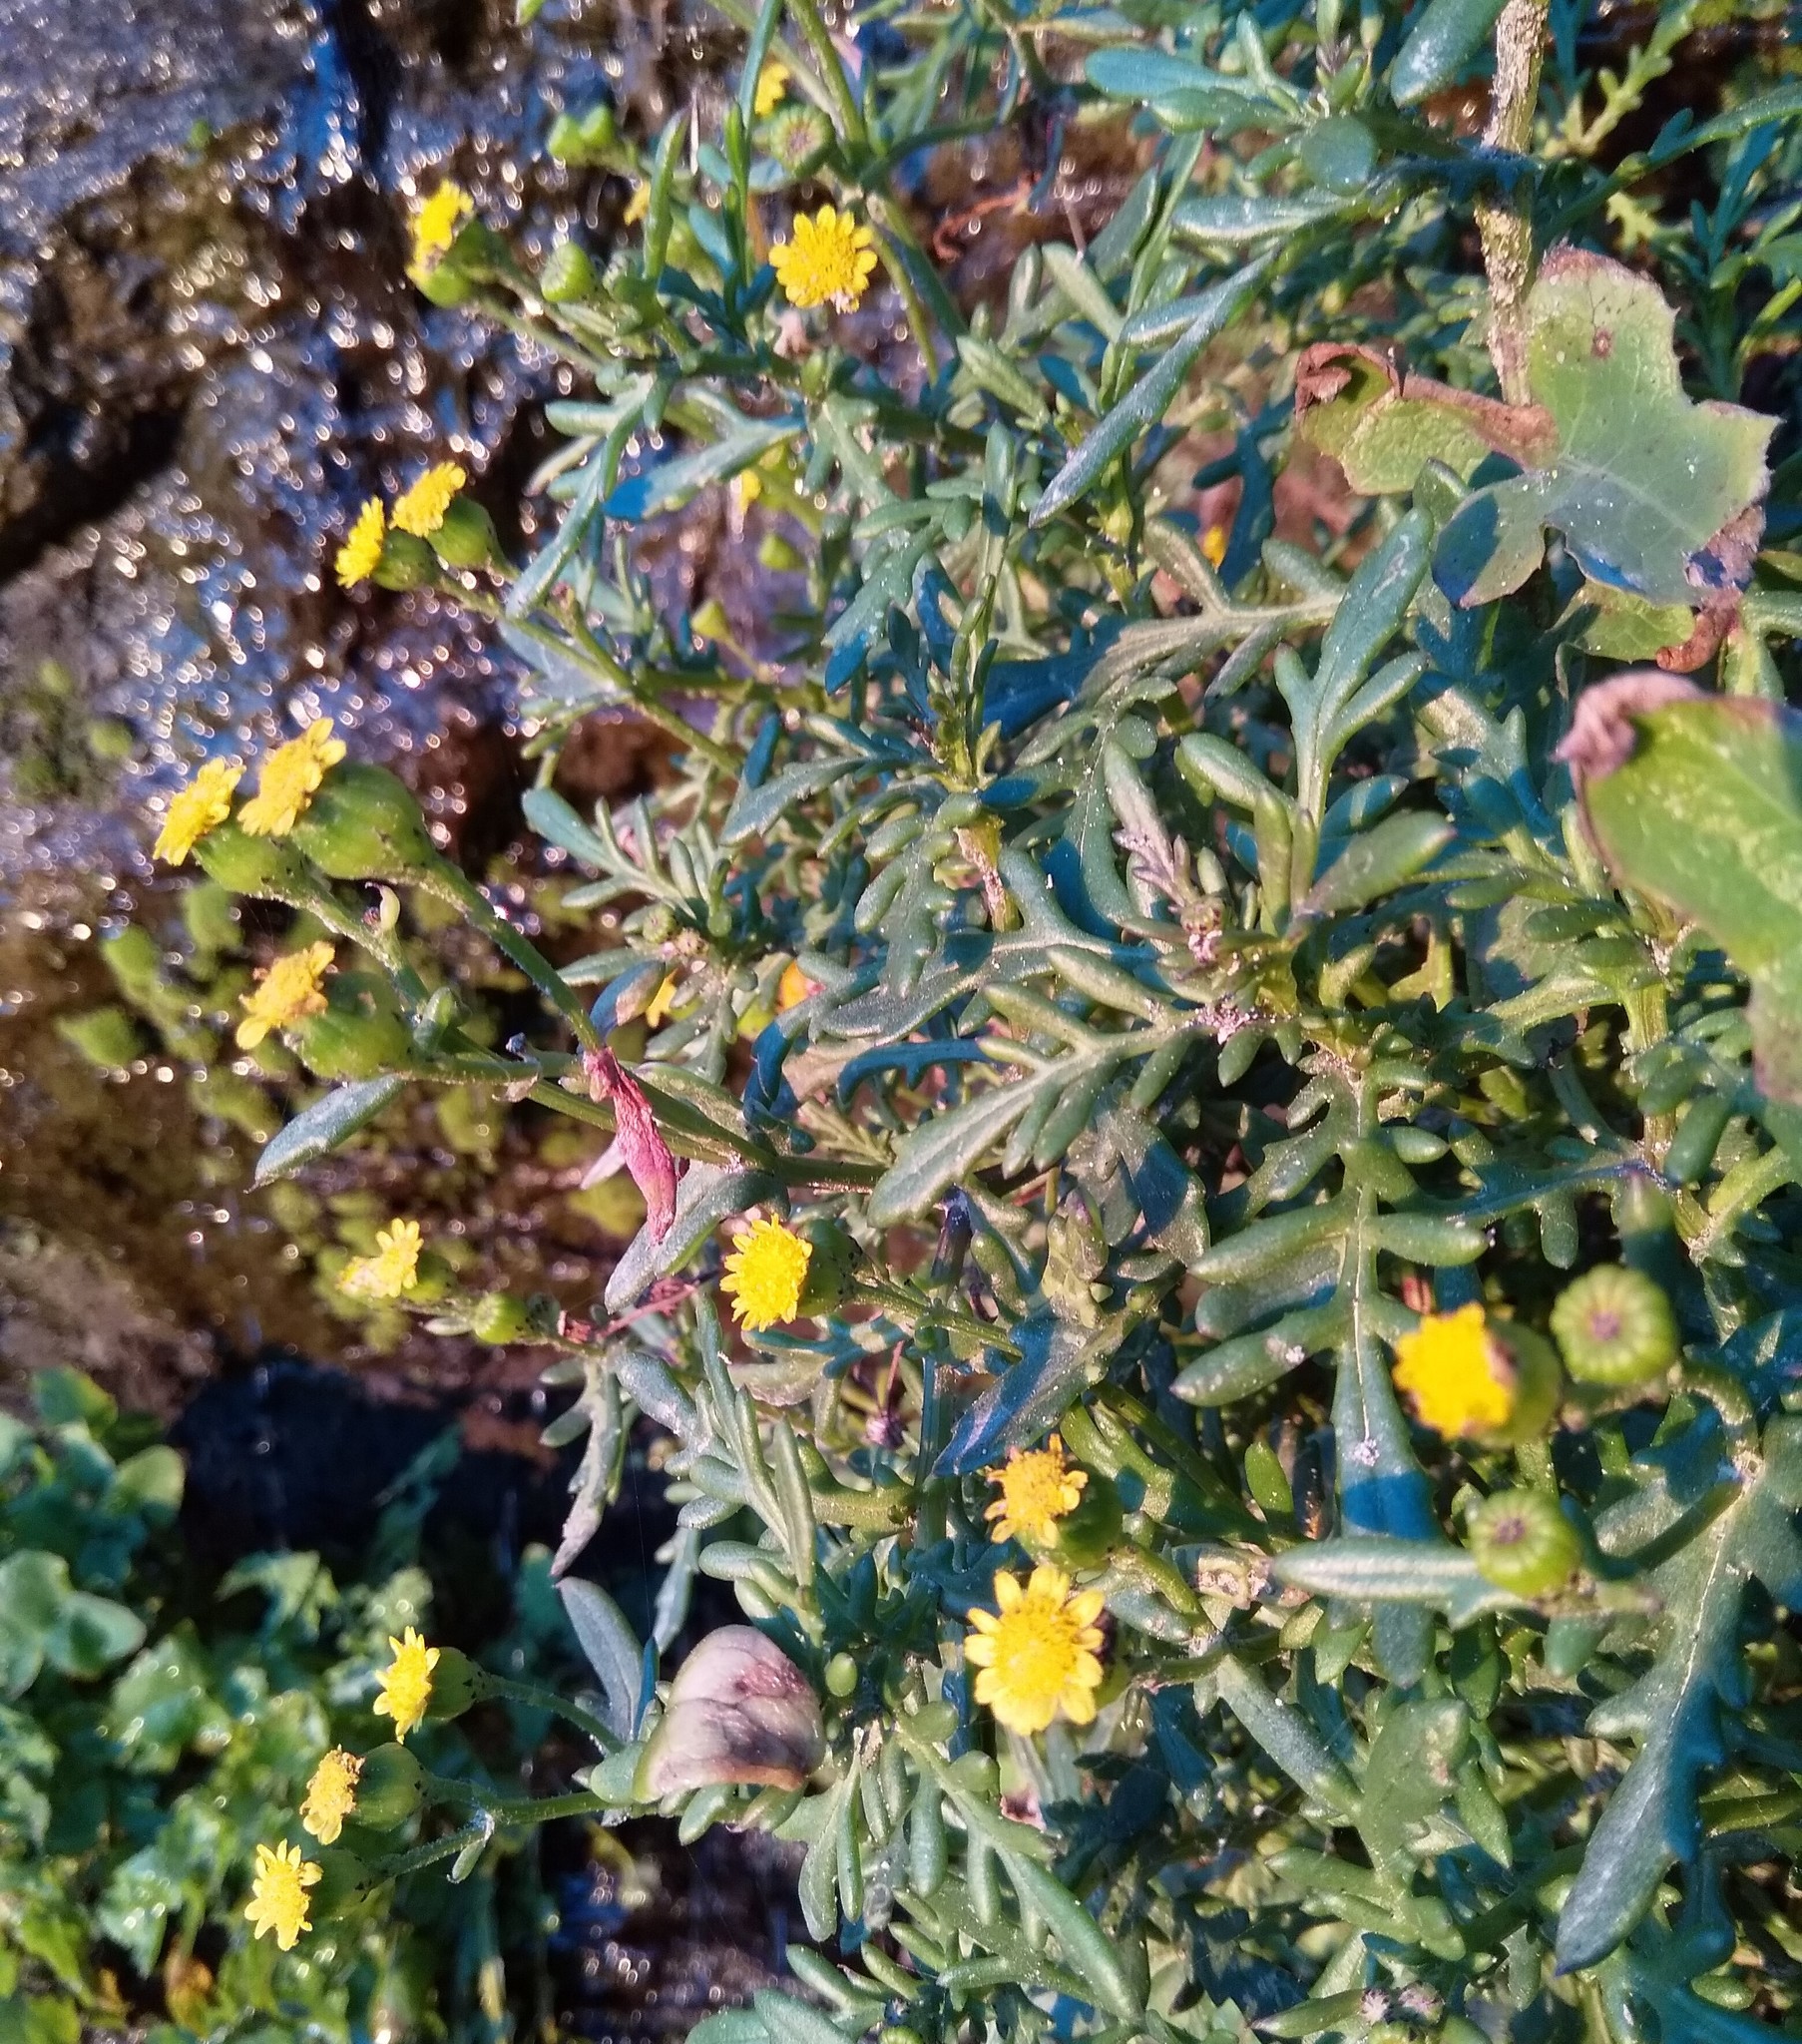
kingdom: Plantae
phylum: Tracheophyta
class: Magnoliopsida
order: Asterales
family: Asteraceae
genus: Senecio
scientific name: Senecio lautus
